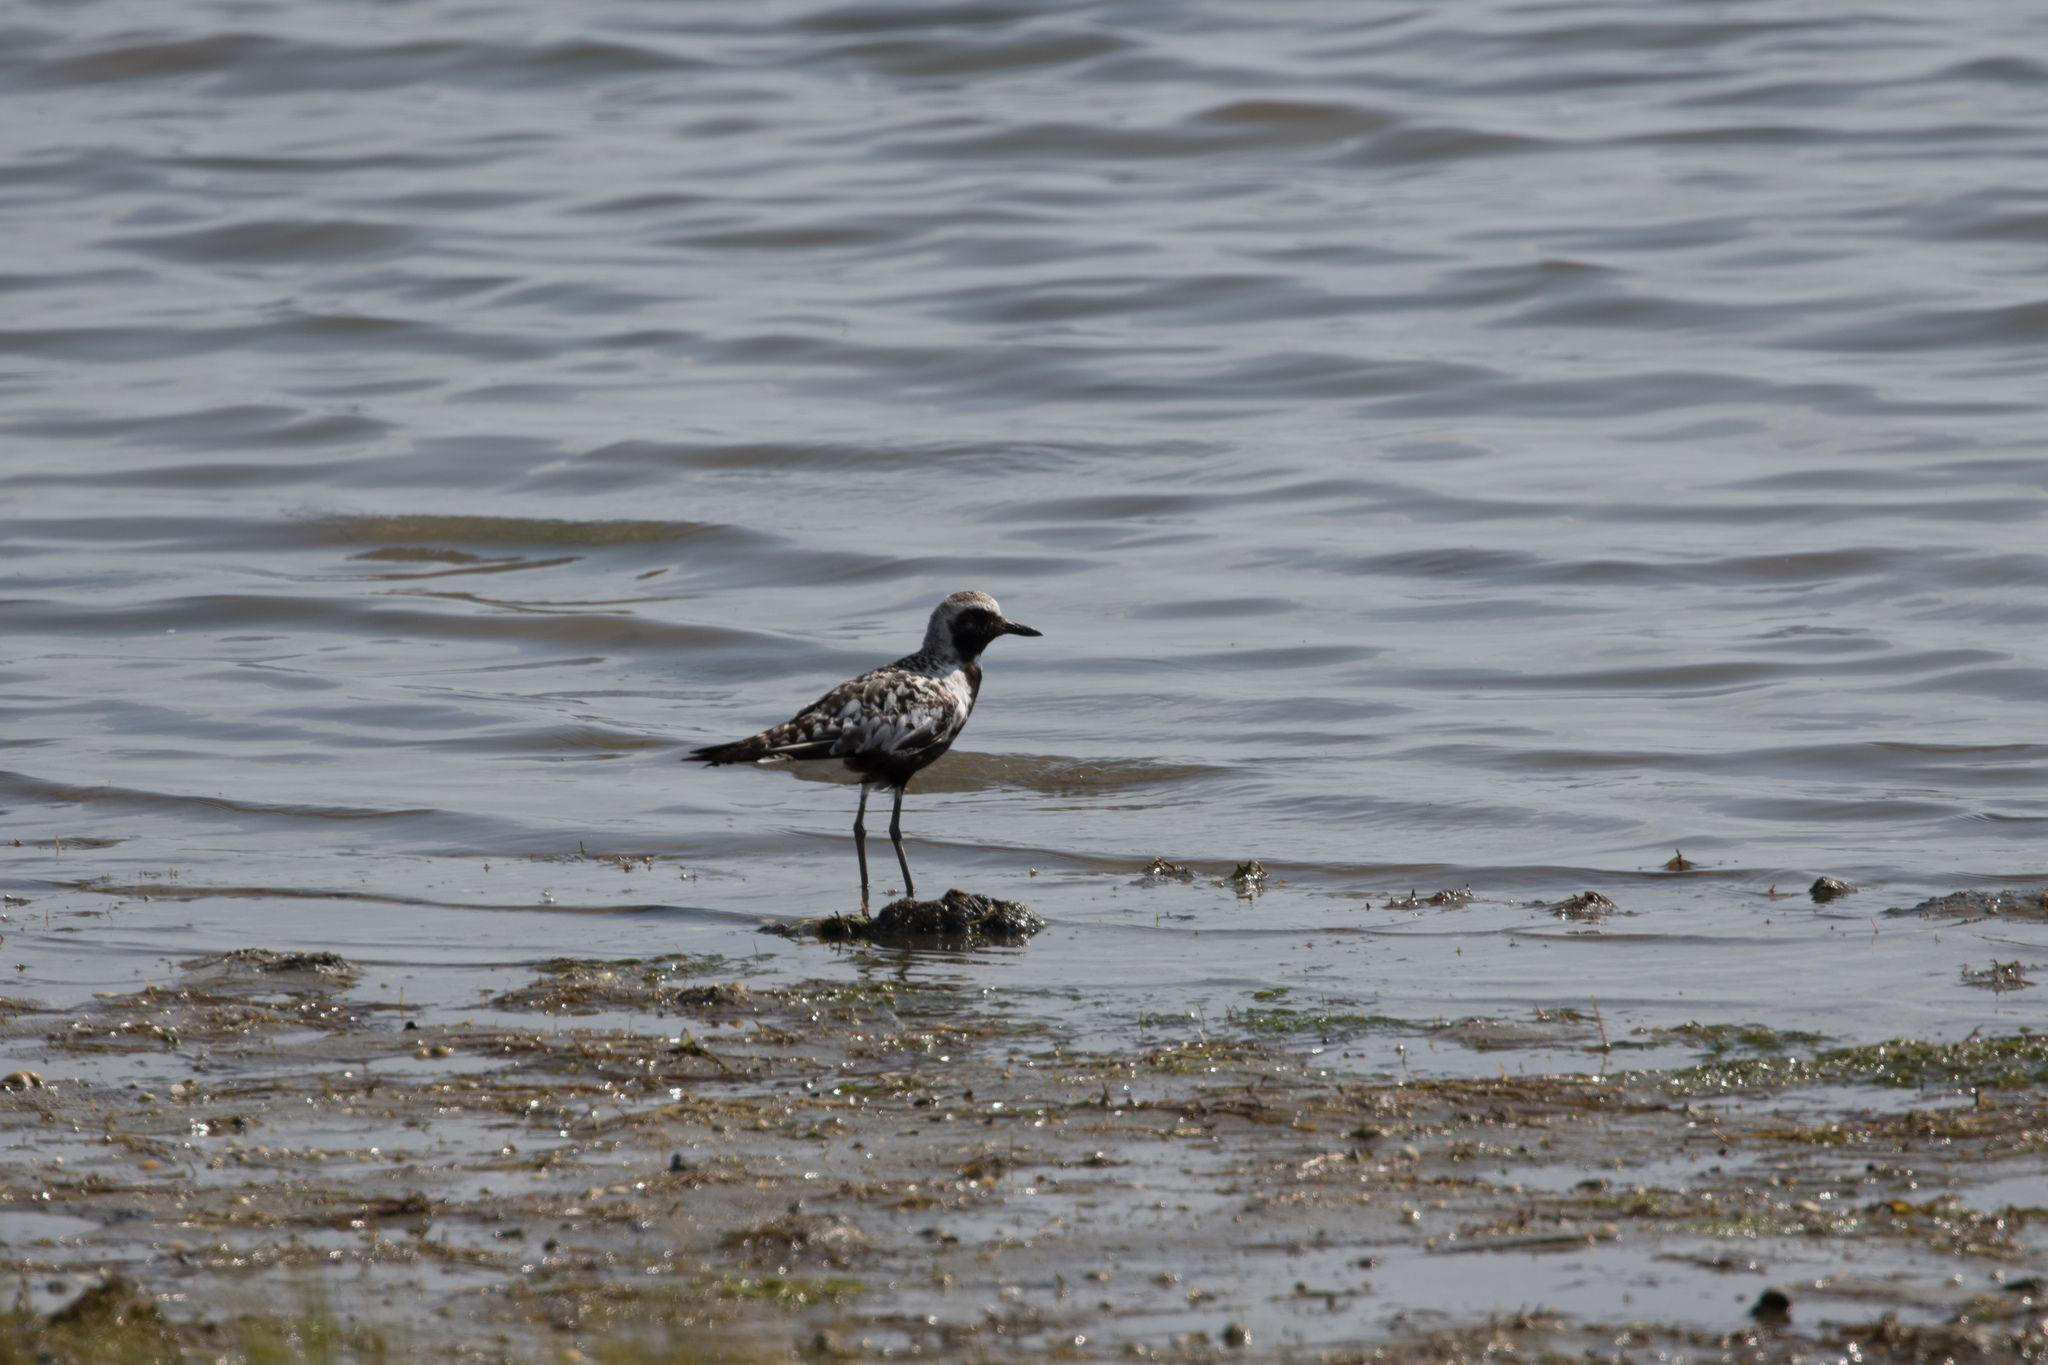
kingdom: Animalia
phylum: Chordata
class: Aves
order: Charadriiformes
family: Charadriidae
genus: Pluvialis
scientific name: Pluvialis squatarola
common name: Grey plover
